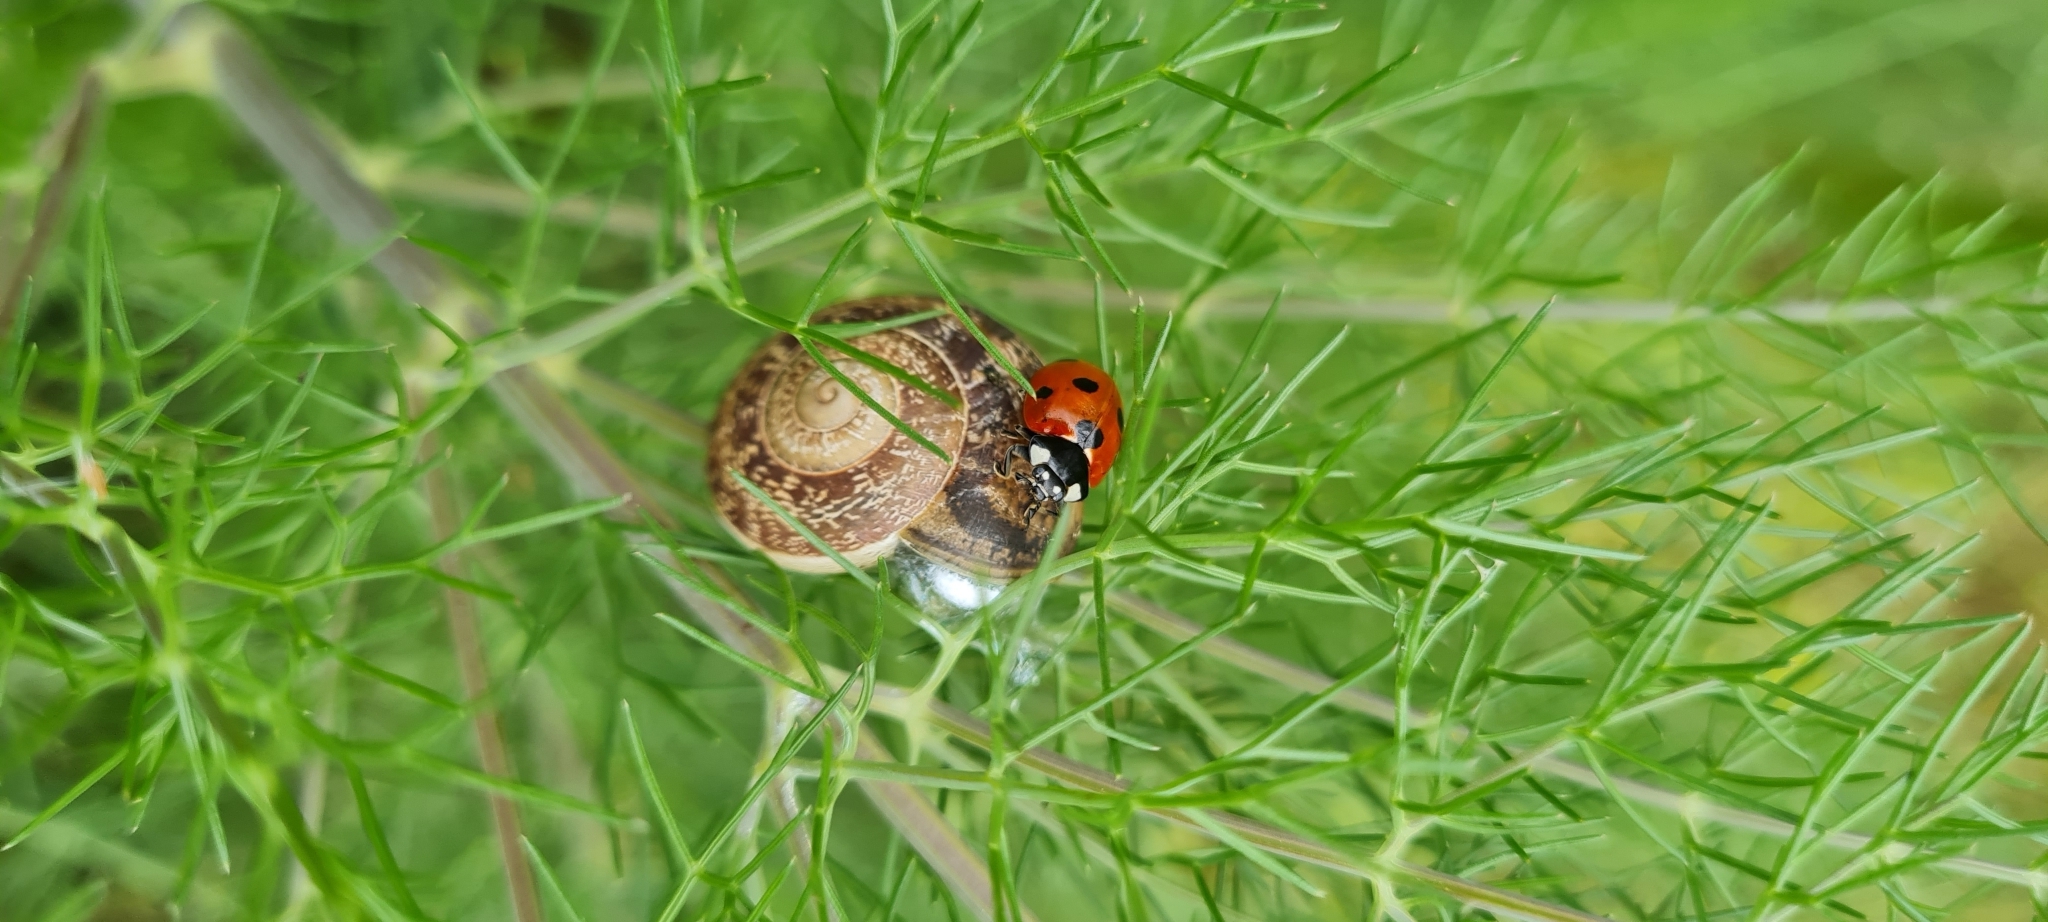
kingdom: Animalia
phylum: Arthropoda
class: Insecta
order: Coleoptera
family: Coccinellidae
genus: Coccinella
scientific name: Coccinella septempunctata
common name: Sevenspotted lady beetle
